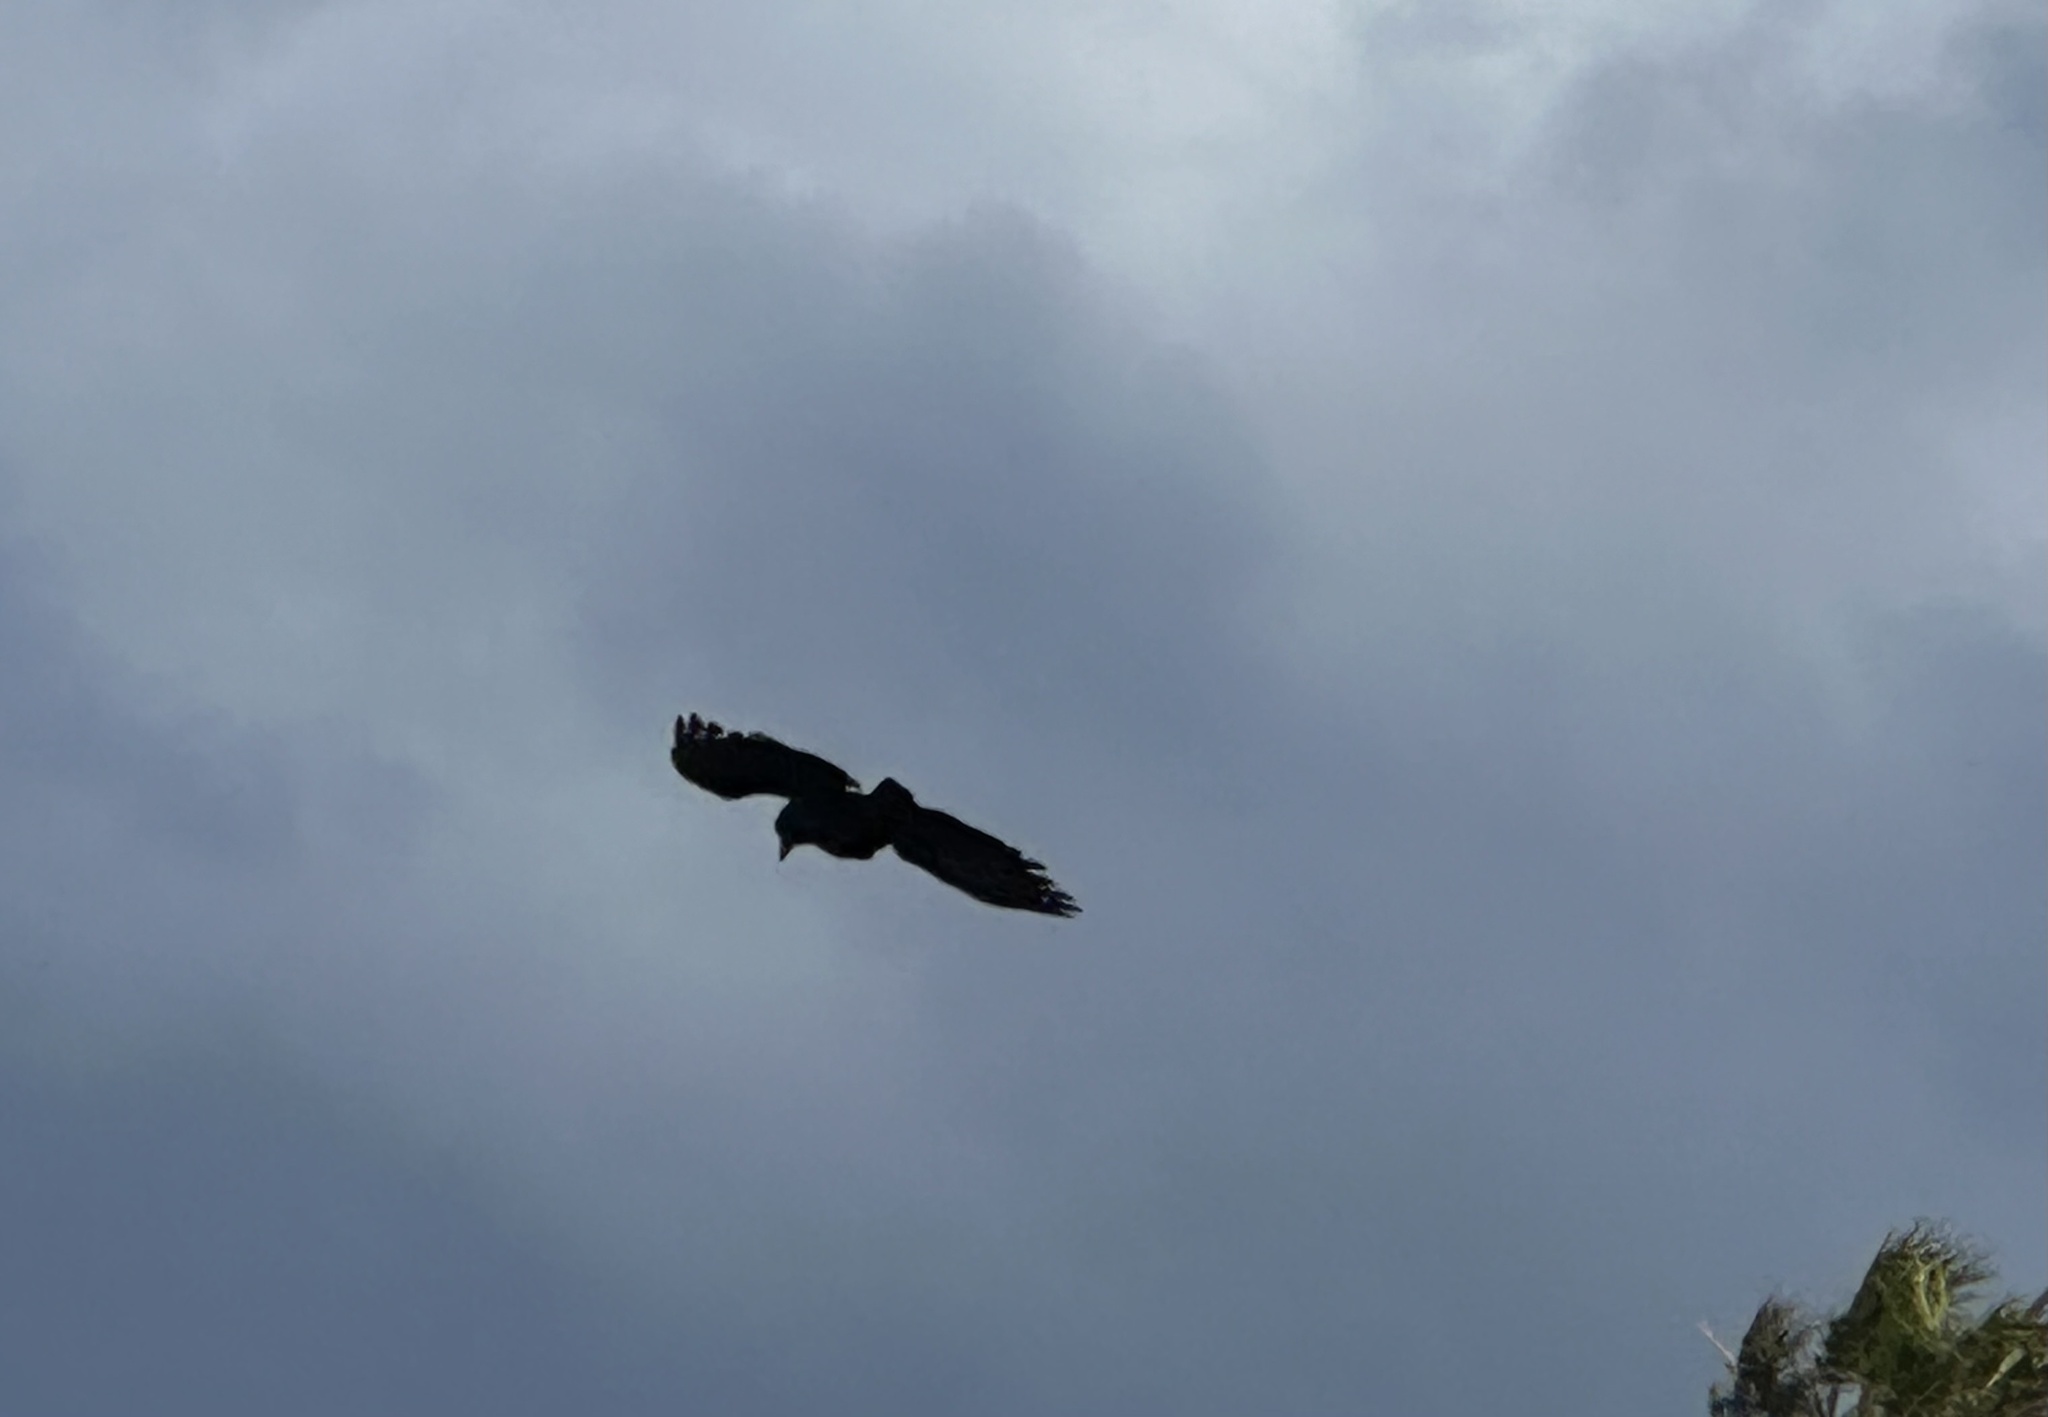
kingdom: Animalia
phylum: Chordata
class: Aves
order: Passeriformes
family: Corvidae
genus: Corvus
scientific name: Corvus brachyrhynchos
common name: American crow
